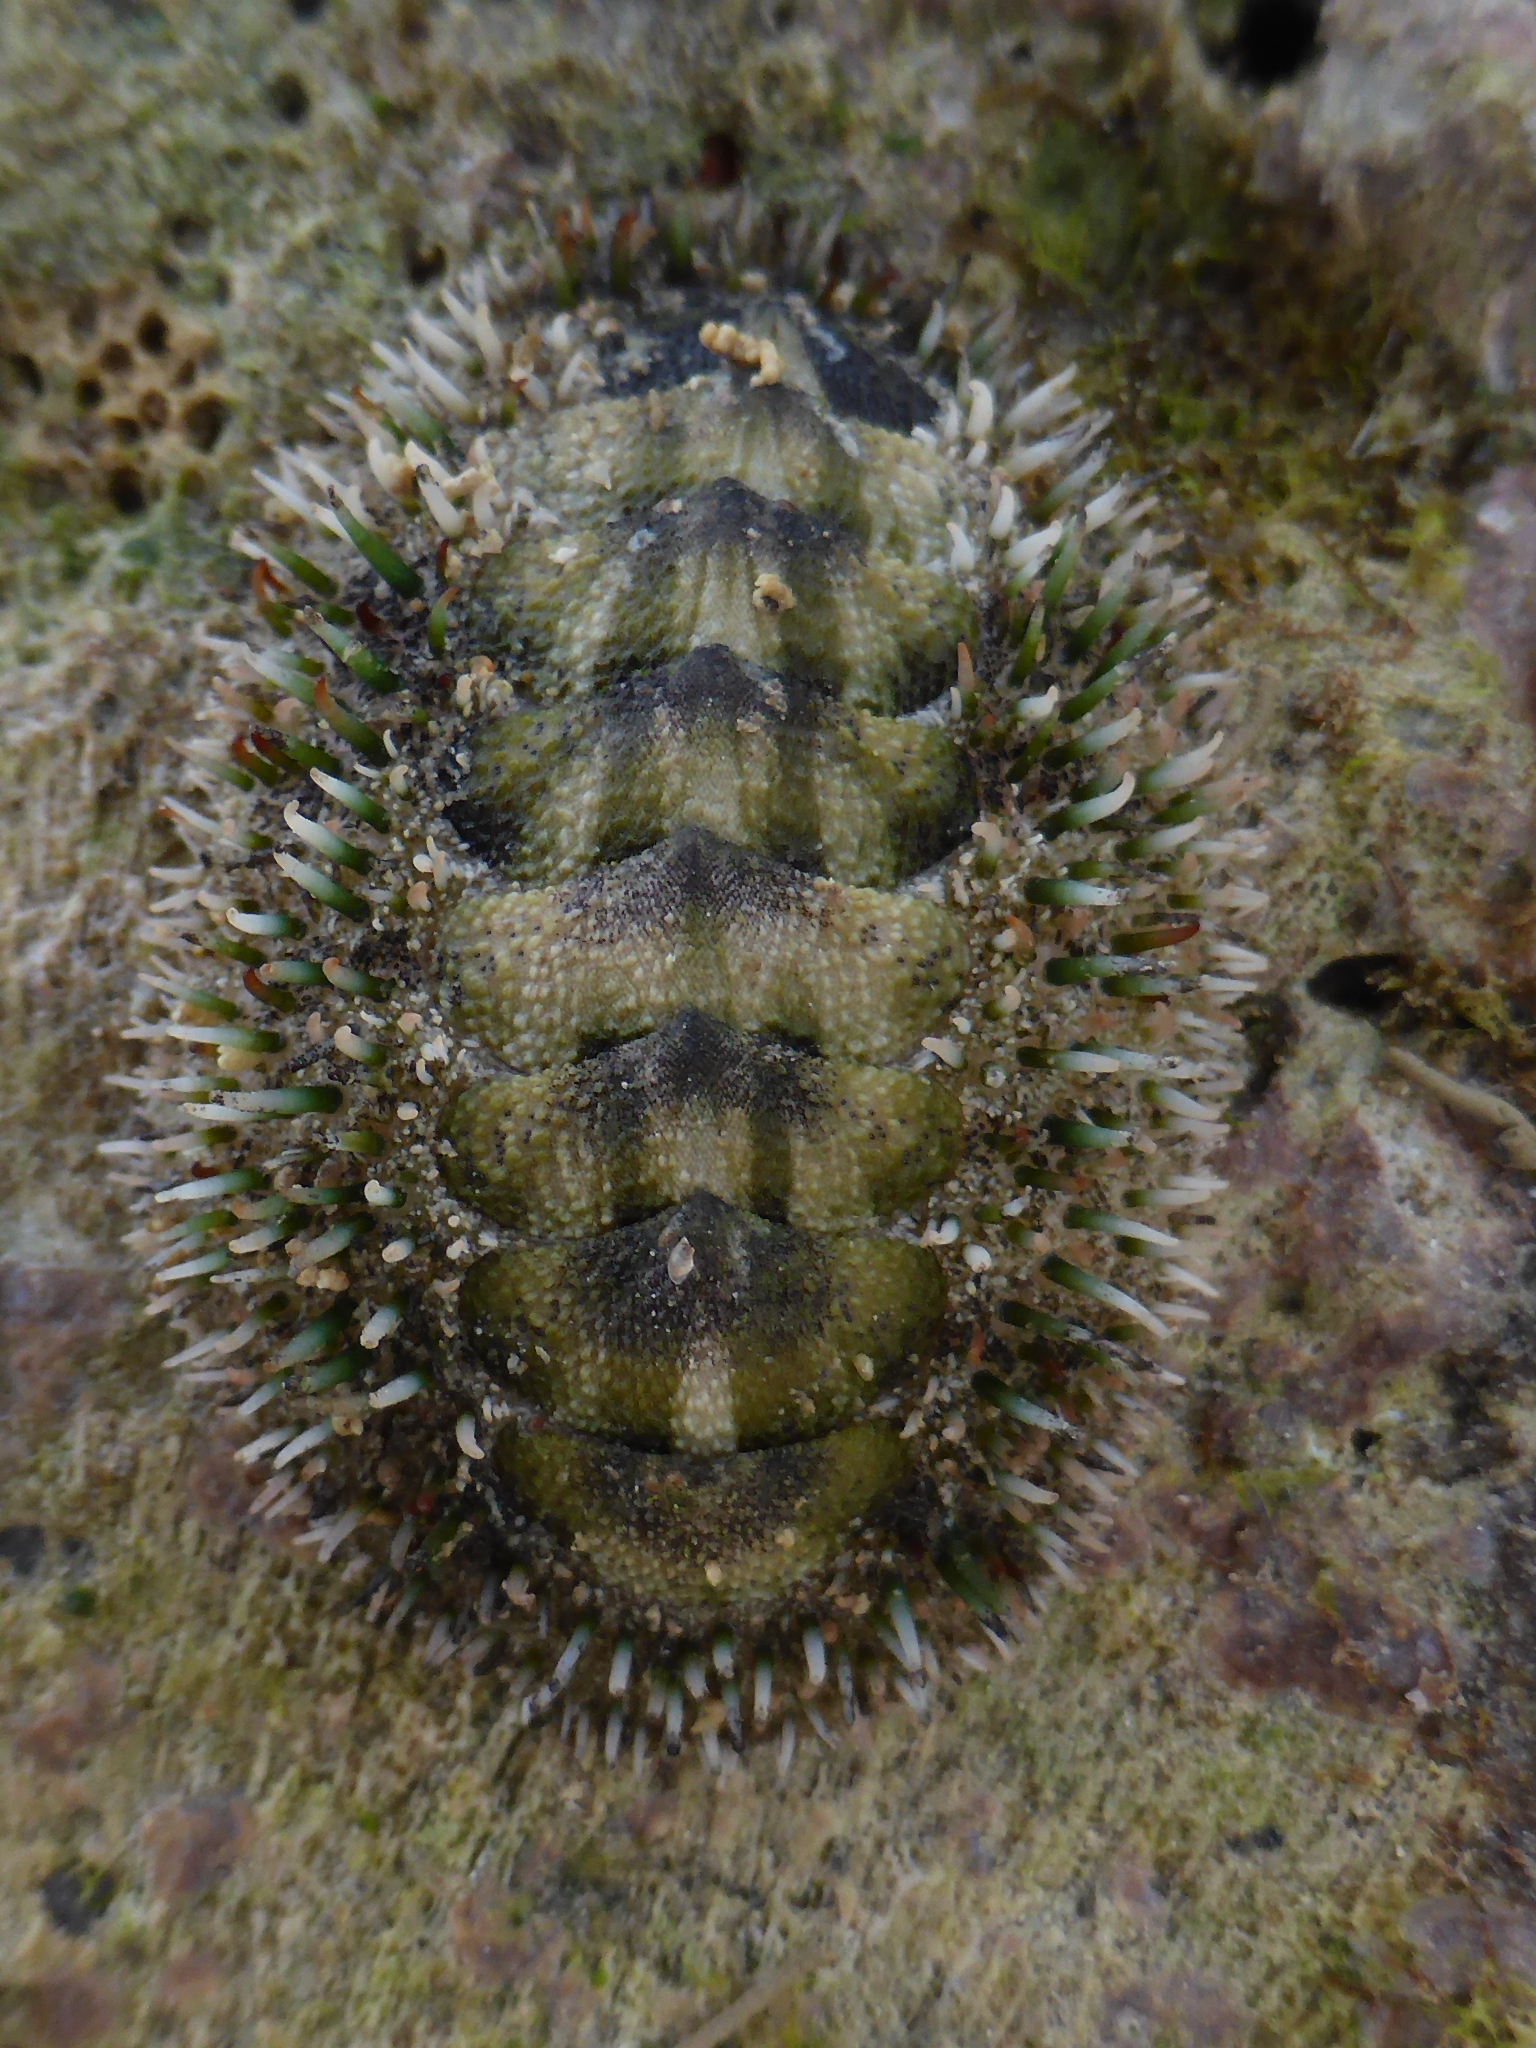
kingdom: Animalia
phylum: Mollusca
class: Polyplacophora
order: Chitonida
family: Chitonidae
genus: Acanthopleura
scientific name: Acanthopleura gemmata
